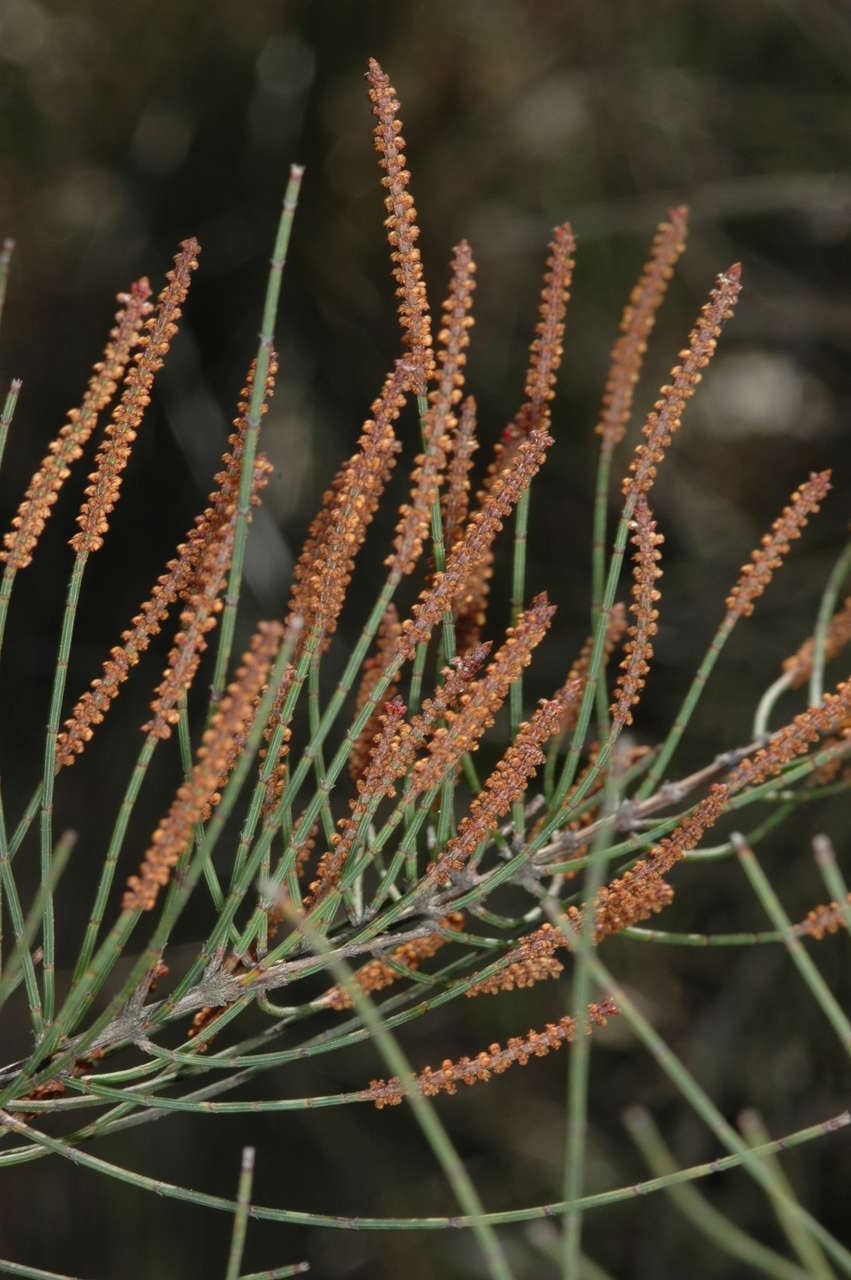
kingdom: Plantae
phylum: Tracheophyta
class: Magnoliopsida
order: Fagales
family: Casuarinaceae
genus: Allocasuarina
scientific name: Allocasuarina paludosa
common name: Scrub she-oak
